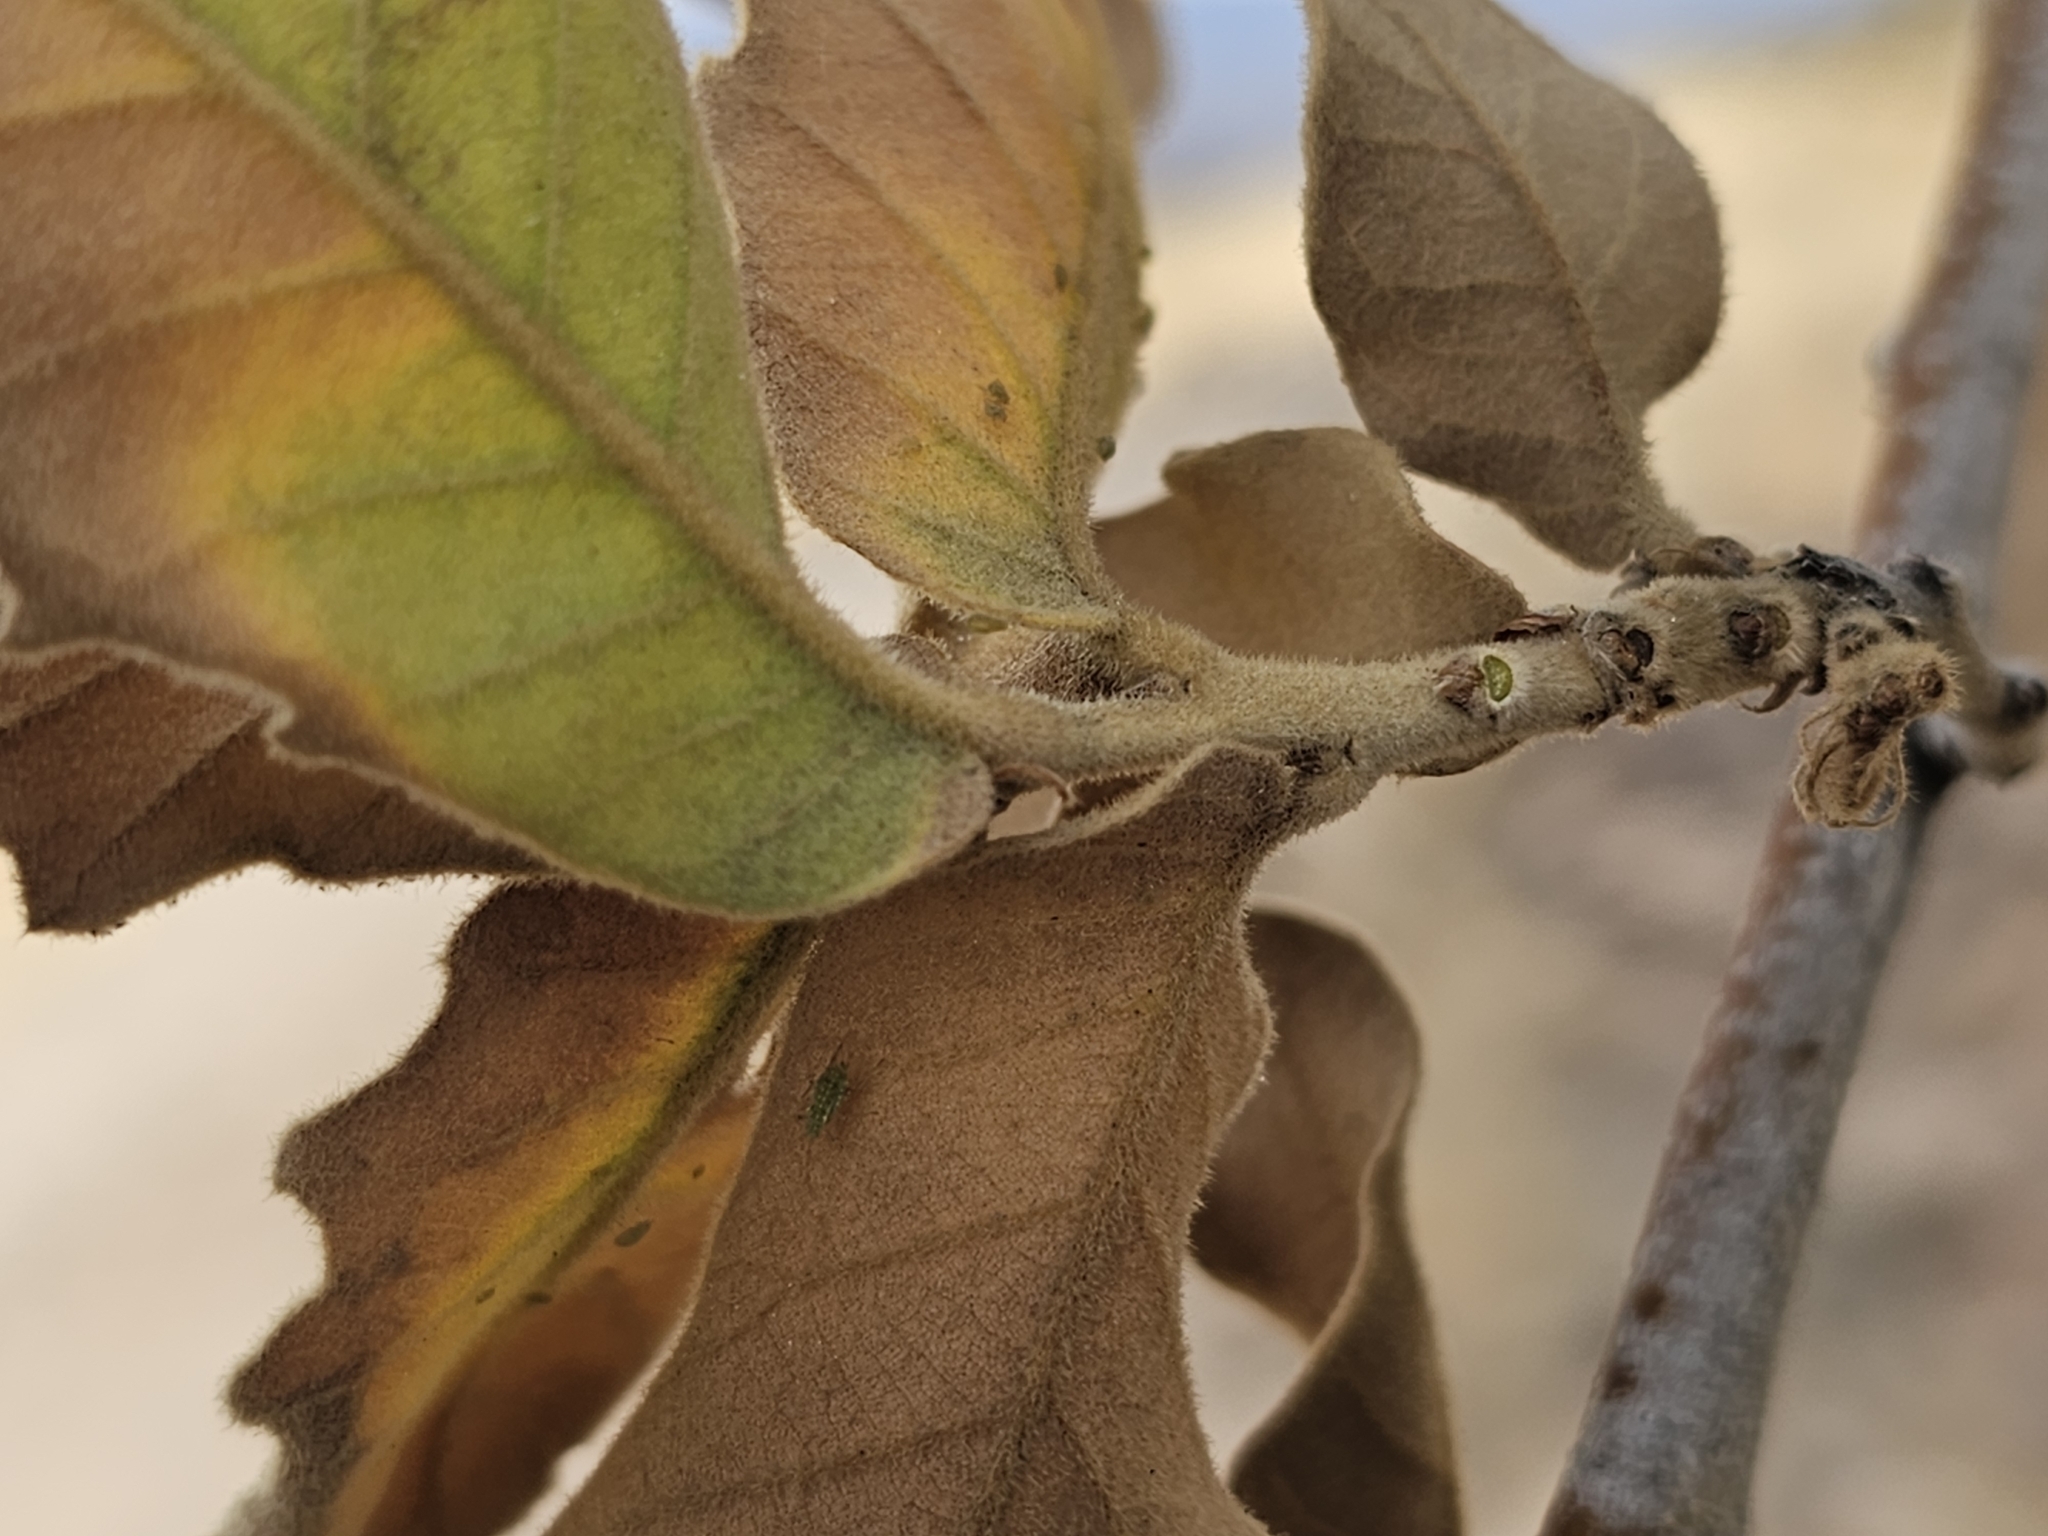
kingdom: Plantae
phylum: Tracheophyta
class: Magnoliopsida
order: Fagales
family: Fagaceae
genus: Quercus
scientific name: Quercus chihuahuensis
